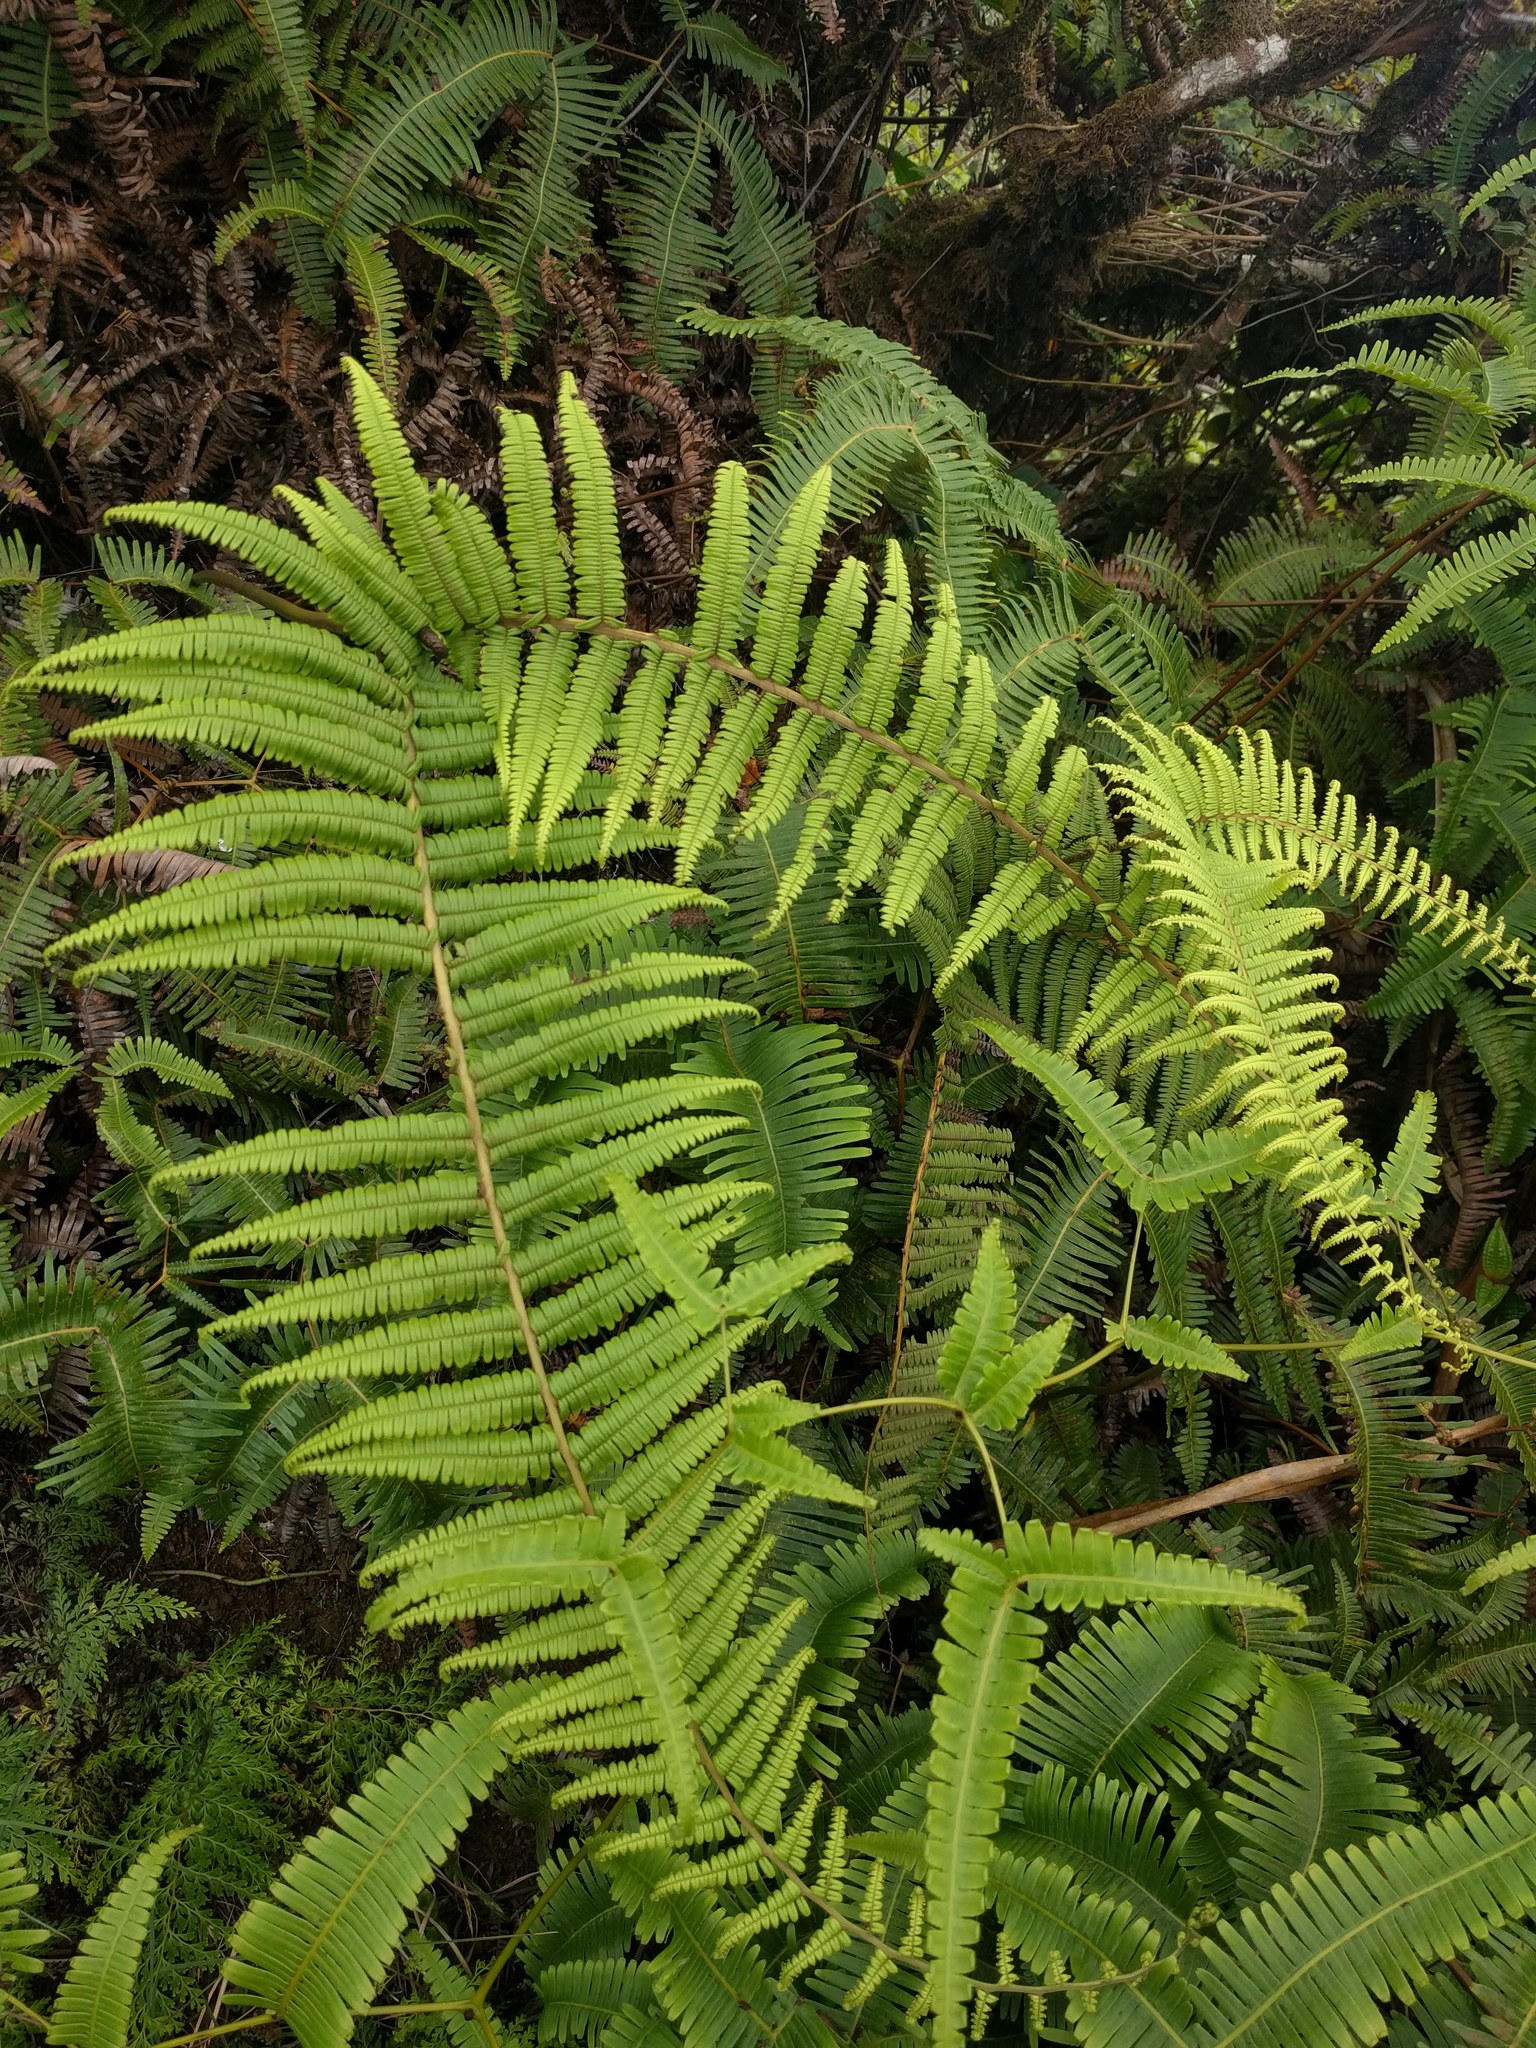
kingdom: Plantae
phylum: Tracheophyta
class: Polypodiopsida
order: Gleicheniales
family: Gleicheniaceae
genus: Diplopterygium
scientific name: Diplopterygium pinnatum
